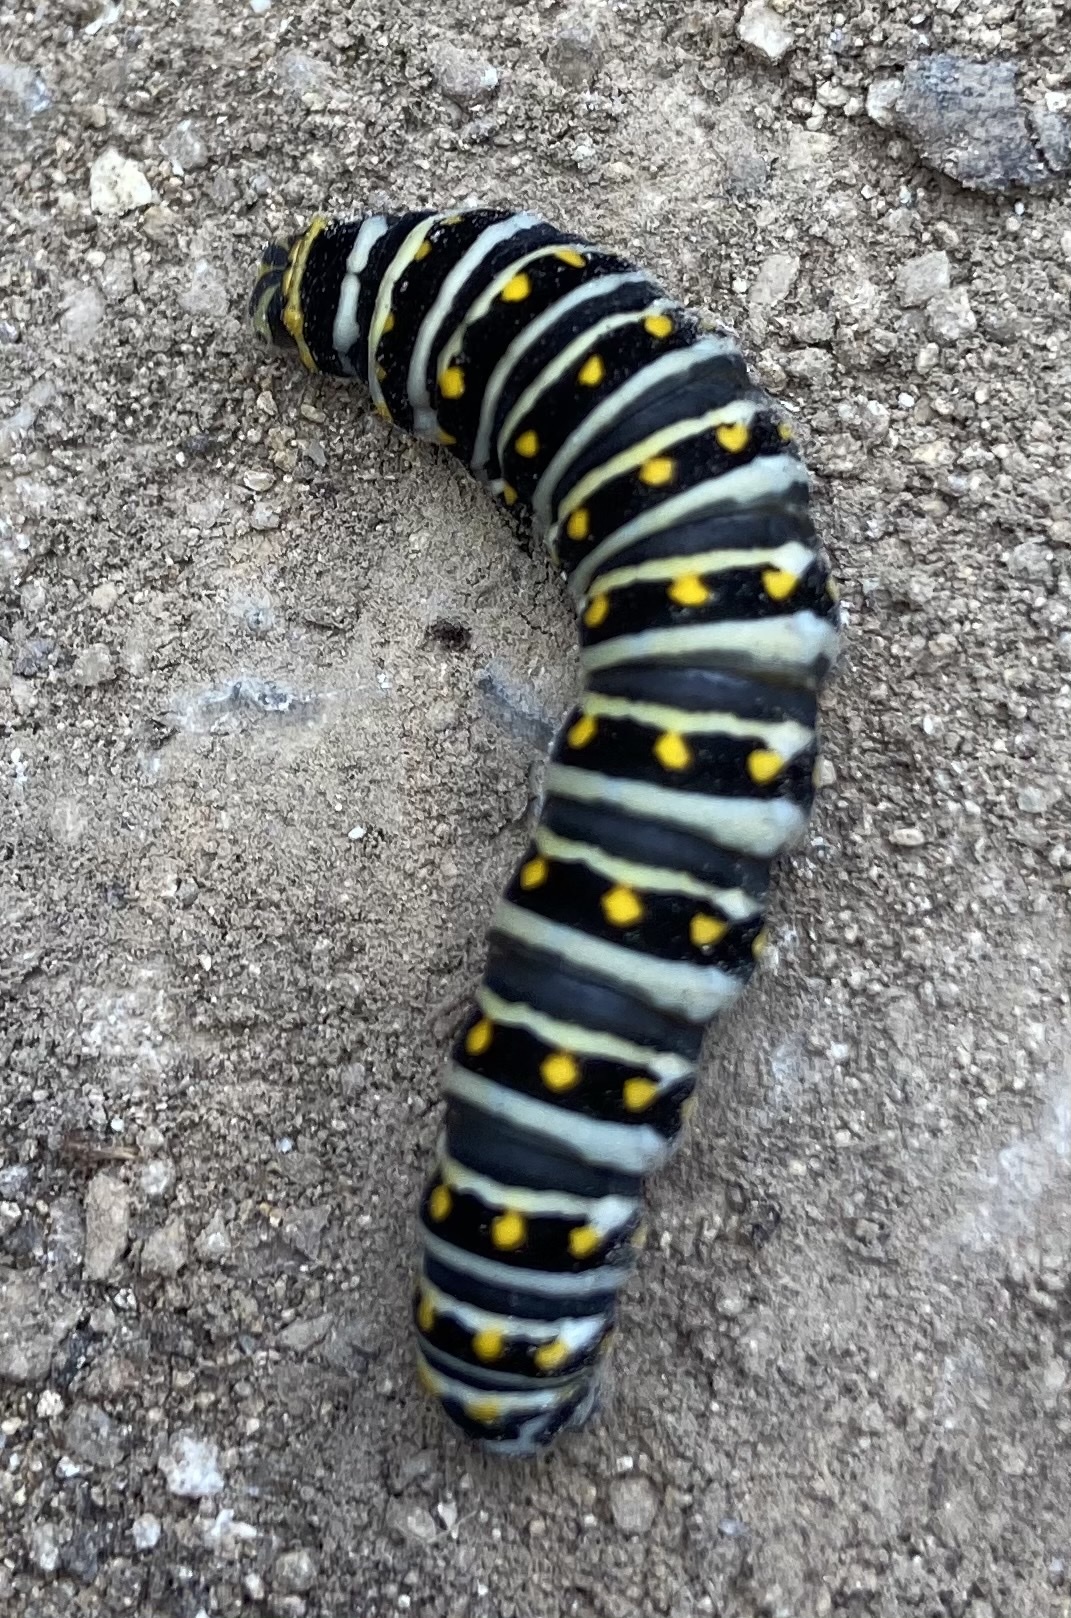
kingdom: Animalia
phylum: Arthropoda
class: Insecta
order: Lepidoptera
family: Papilionidae
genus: Papilio
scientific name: Papilio polyxenes
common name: Black swallowtail
